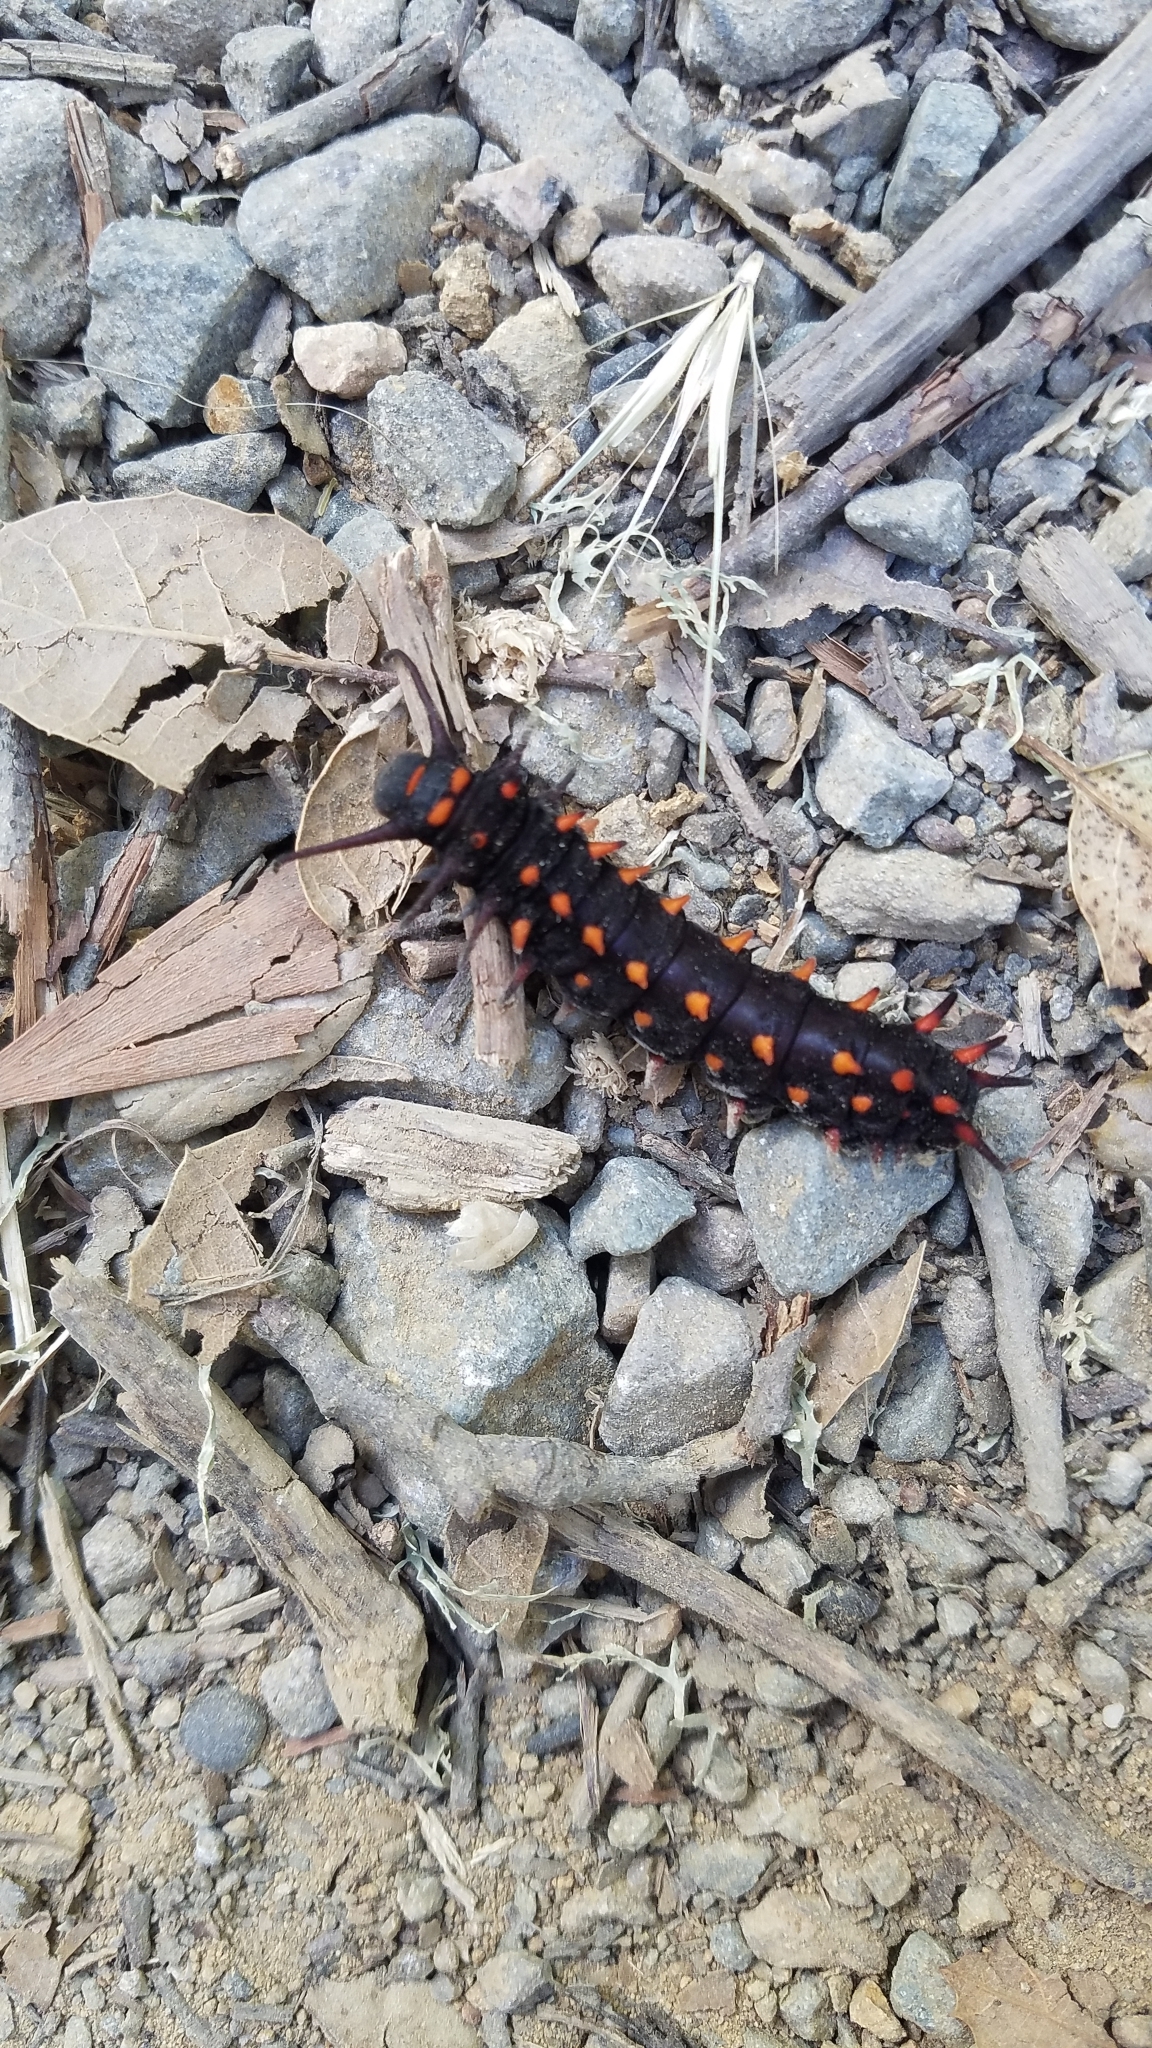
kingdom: Animalia
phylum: Arthropoda
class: Insecta
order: Lepidoptera
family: Papilionidae
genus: Battus
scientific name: Battus philenor
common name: Pipevine swallowtail
